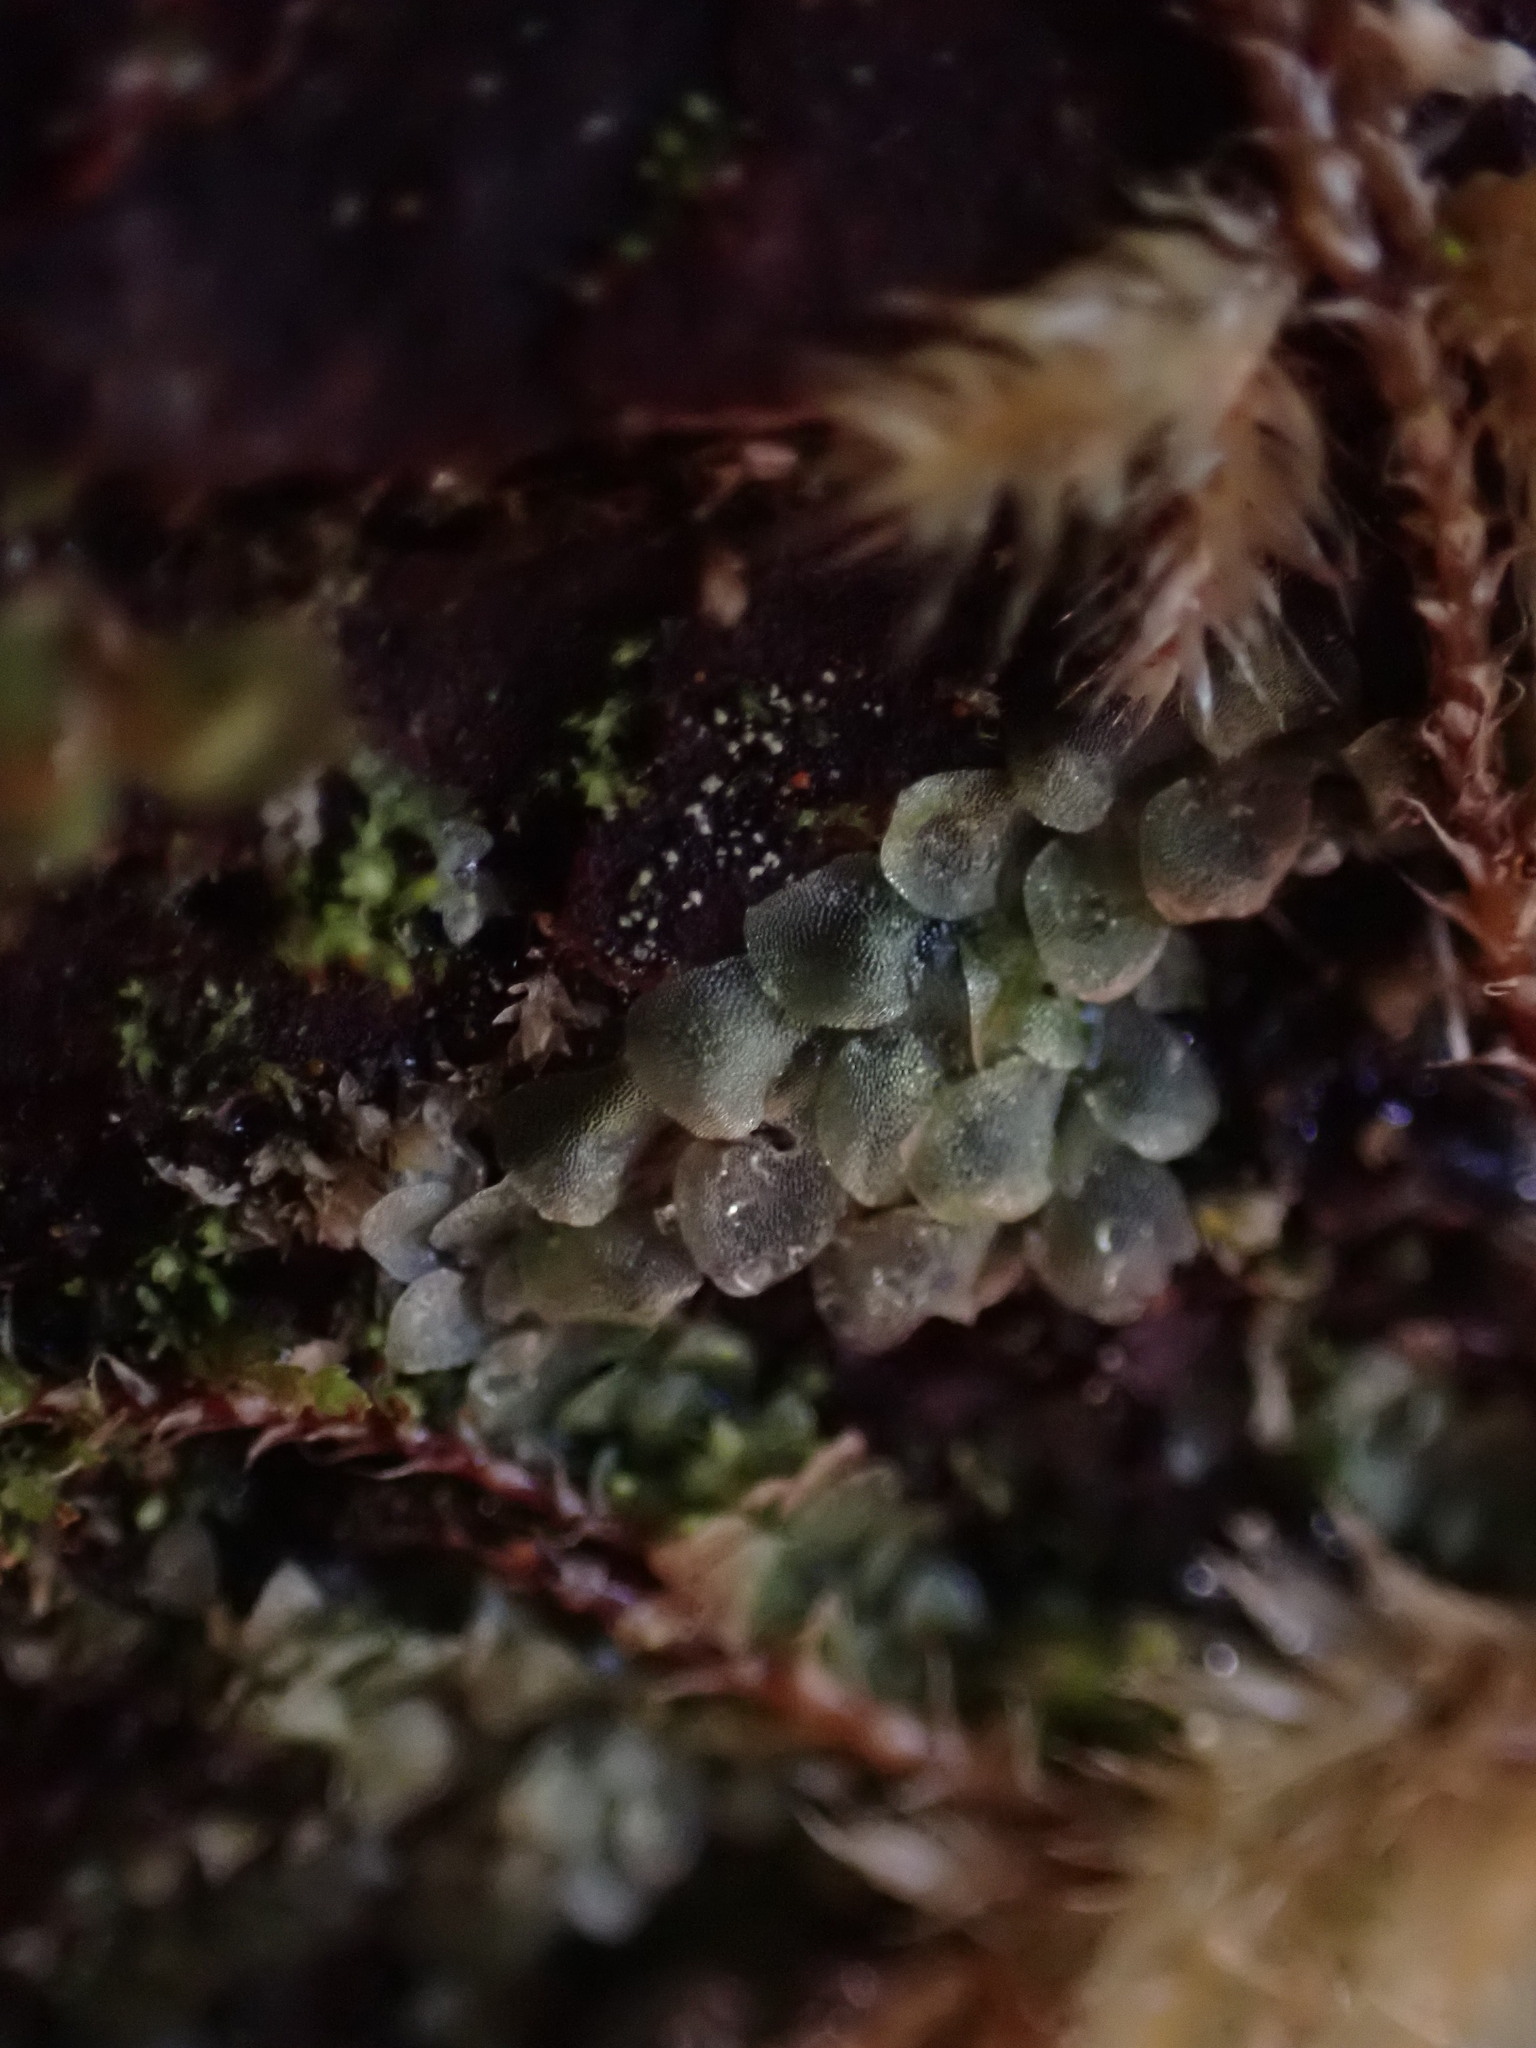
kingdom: Plantae
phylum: Marchantiophyta
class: Jungermanniopsida
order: Jungermanniales
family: Calypogeiaceae
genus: Calypogeia
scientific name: Calypogeia azurea
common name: Blue pouchwort
